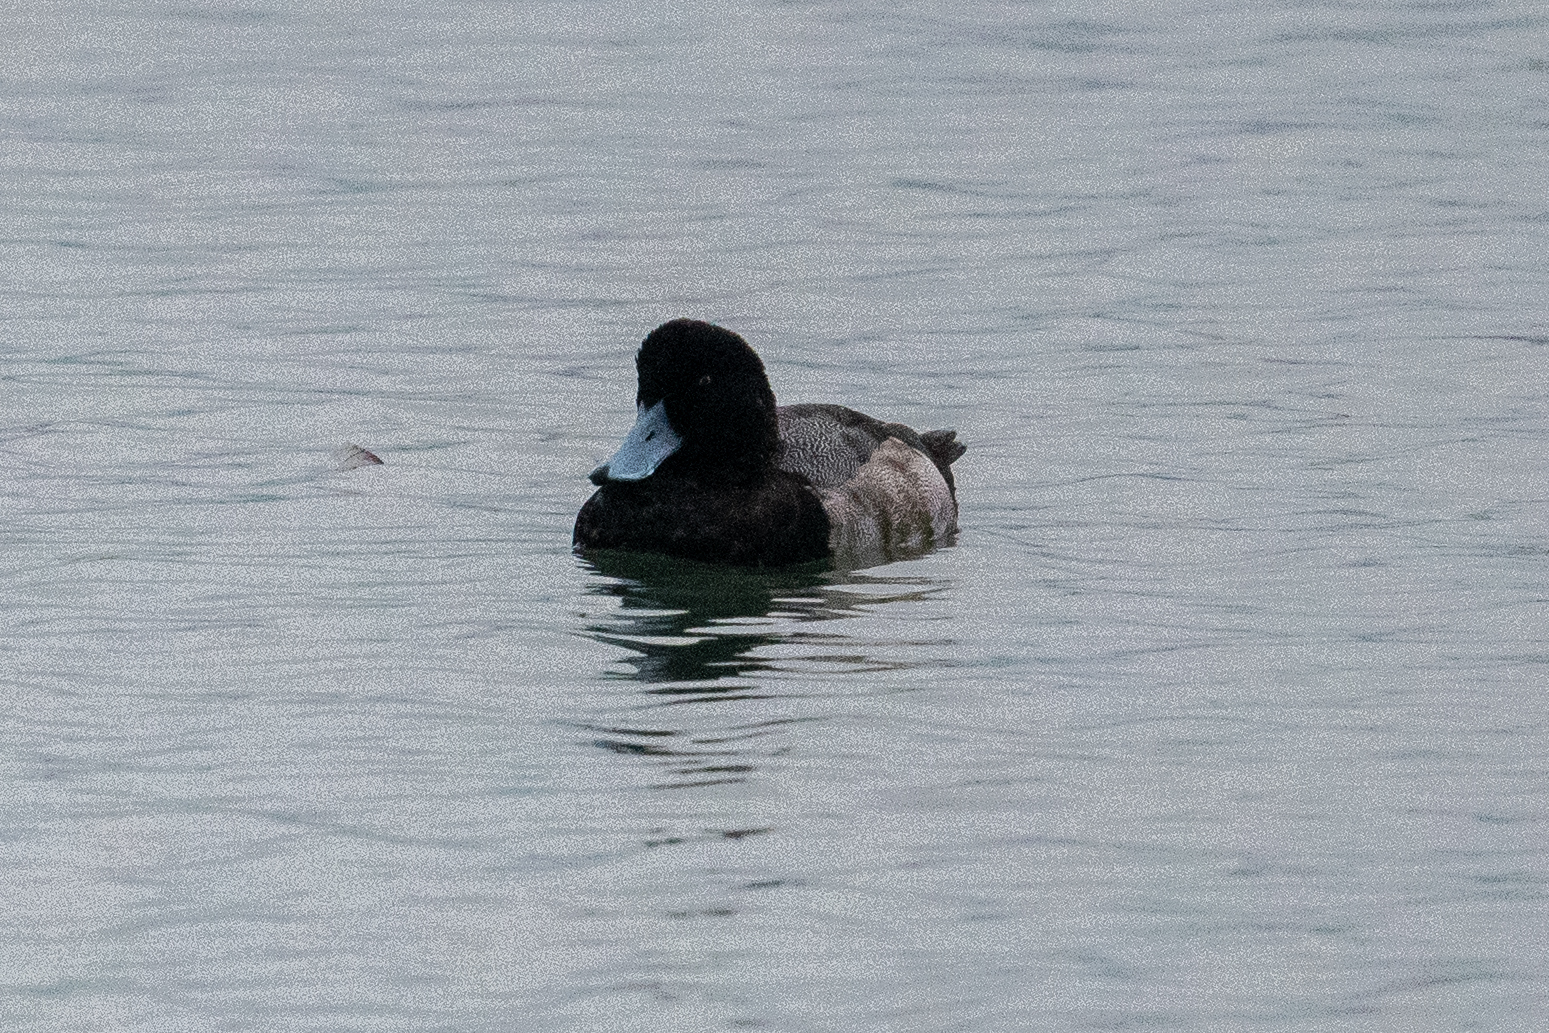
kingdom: Animalia
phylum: Chordata
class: Aves
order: Anseriformes
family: Anatidae
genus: Aythya
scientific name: Aythya marila
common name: Greater scaup
